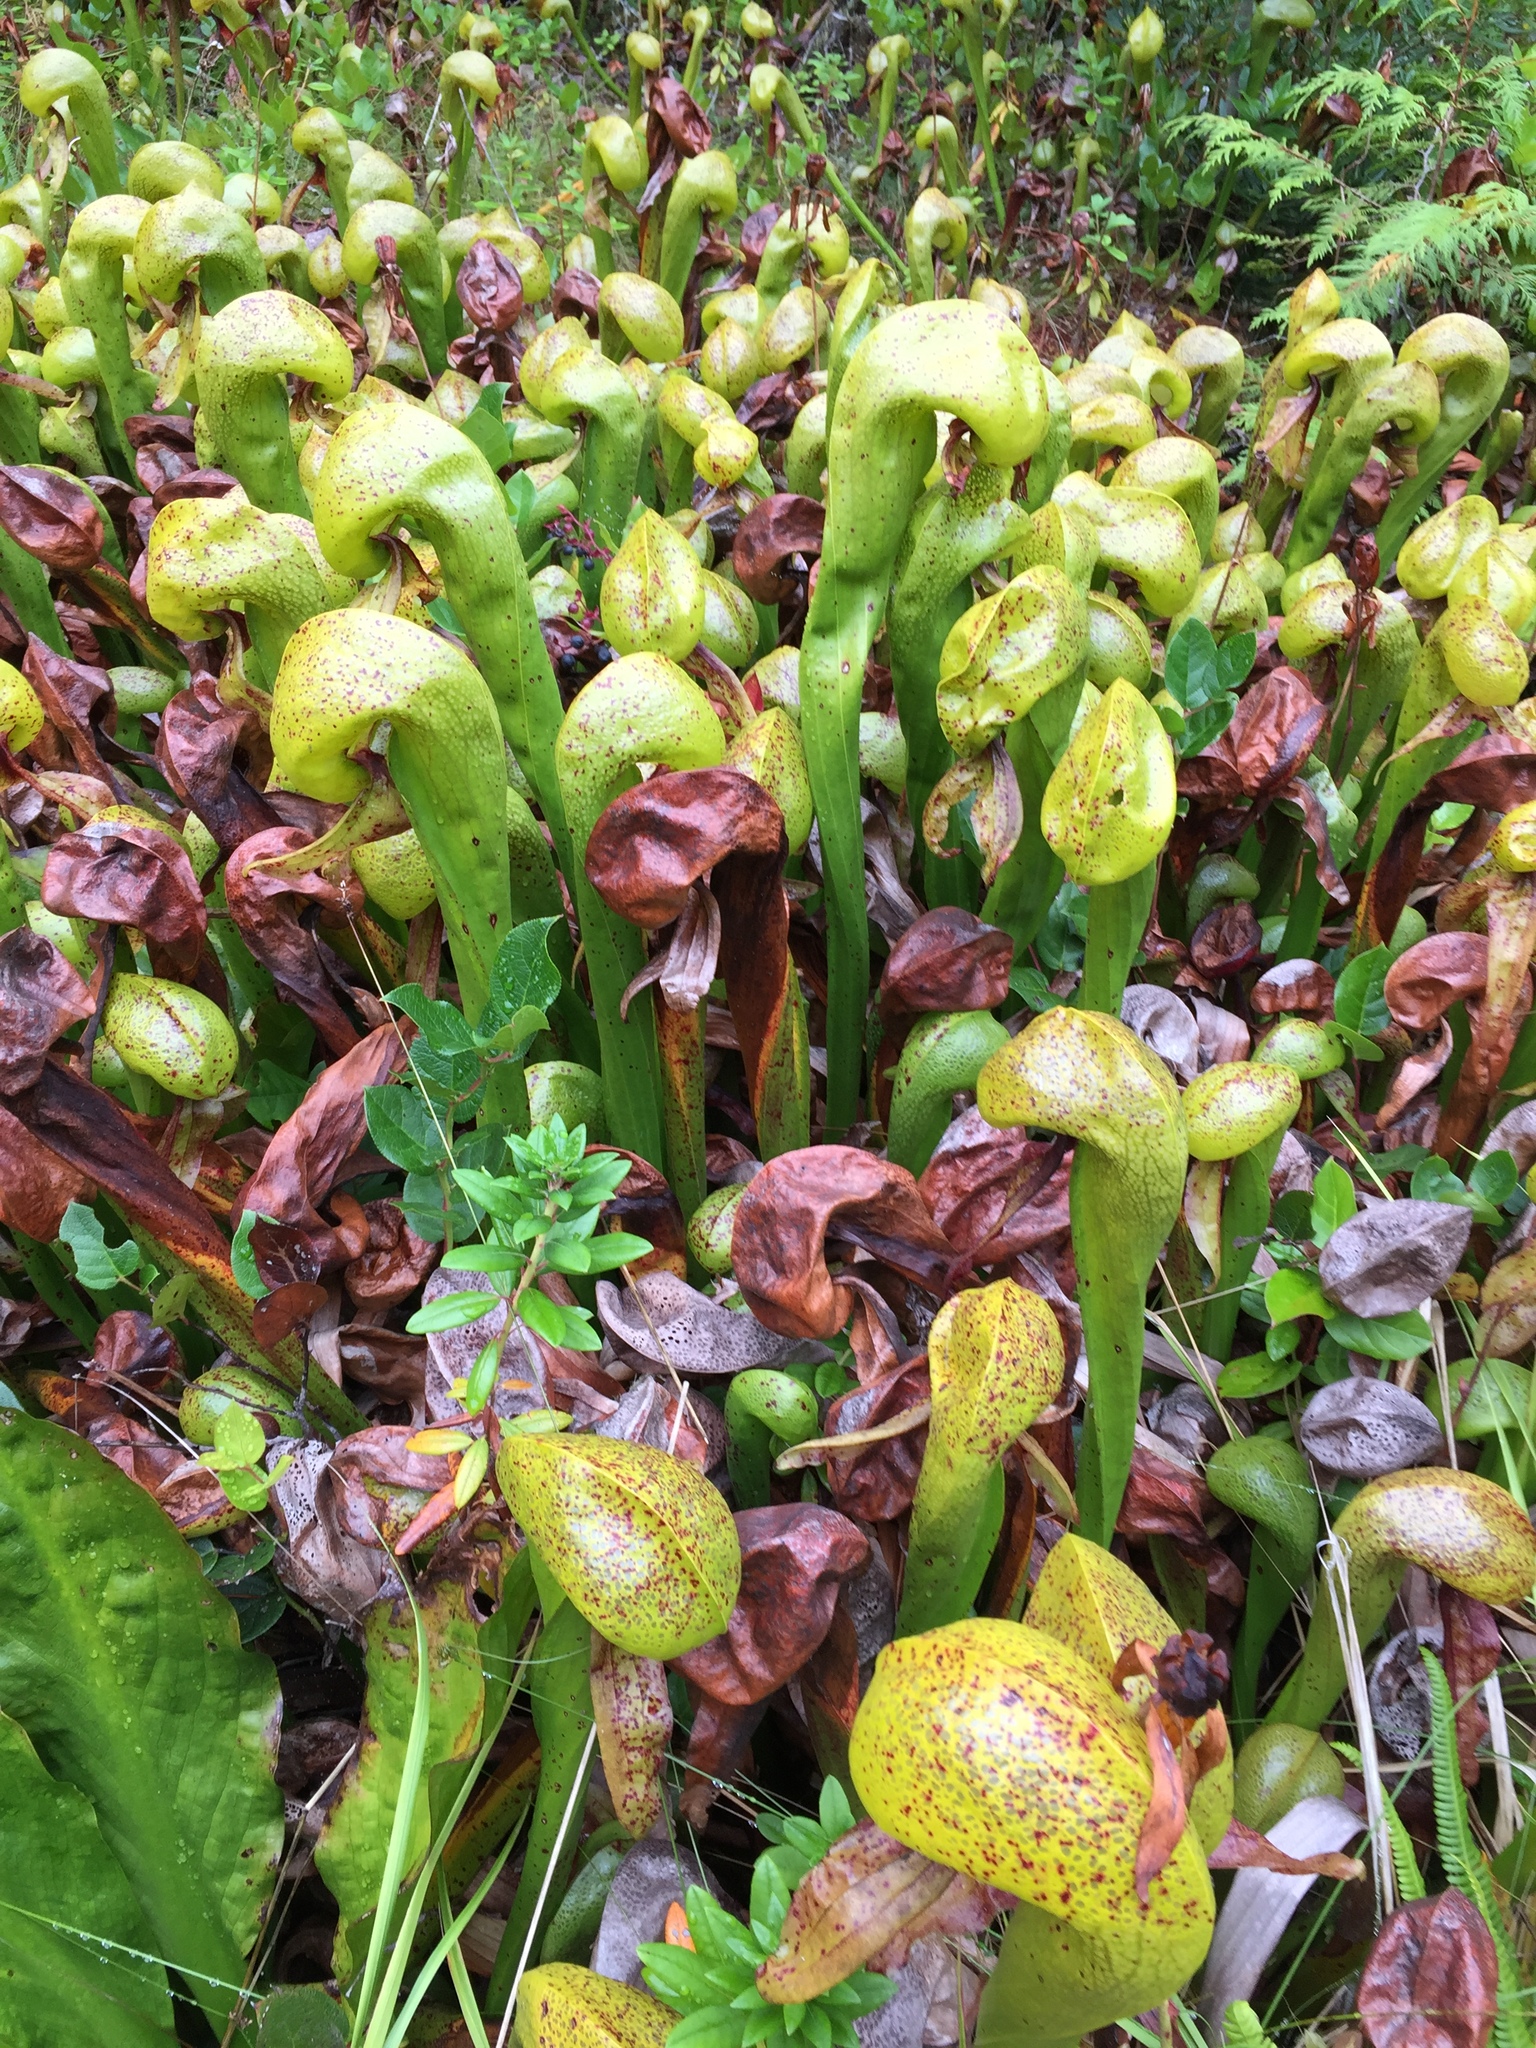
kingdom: Plantae
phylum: Tracheophyta
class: Magnoliopsida
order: Ericales
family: Sarraceniaceae
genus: Darlingtonia
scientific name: Darlingtonia californica
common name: California pitcher plant
